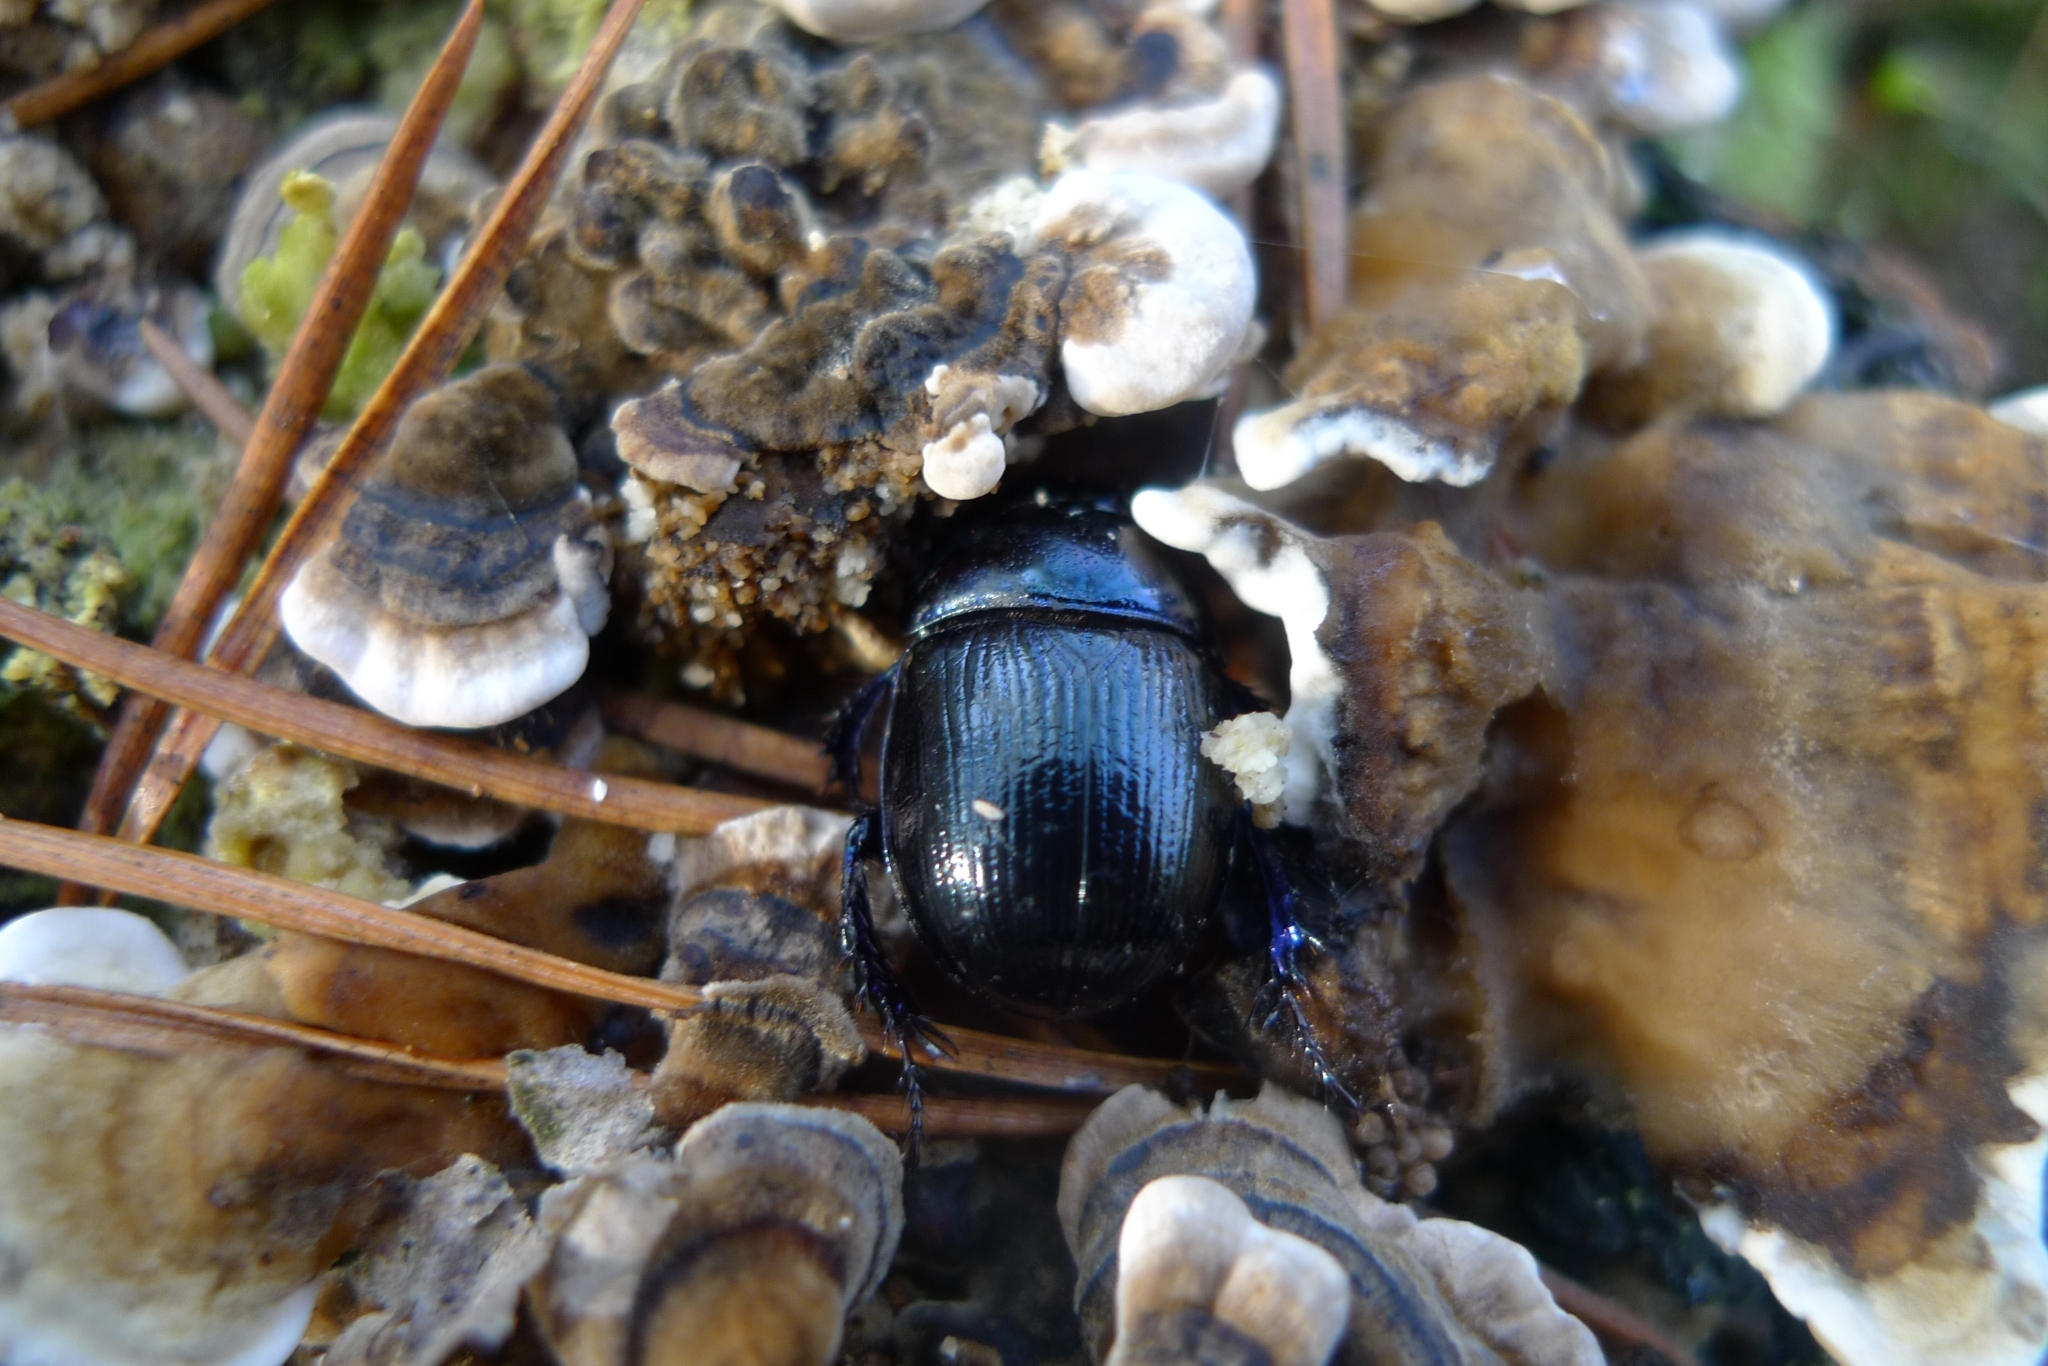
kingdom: Animalia
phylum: Arthropoda
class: Insecta
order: Coleoptera
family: Geotrupidae
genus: Anoplotrupes
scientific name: Anoplotrupes stercorosus
